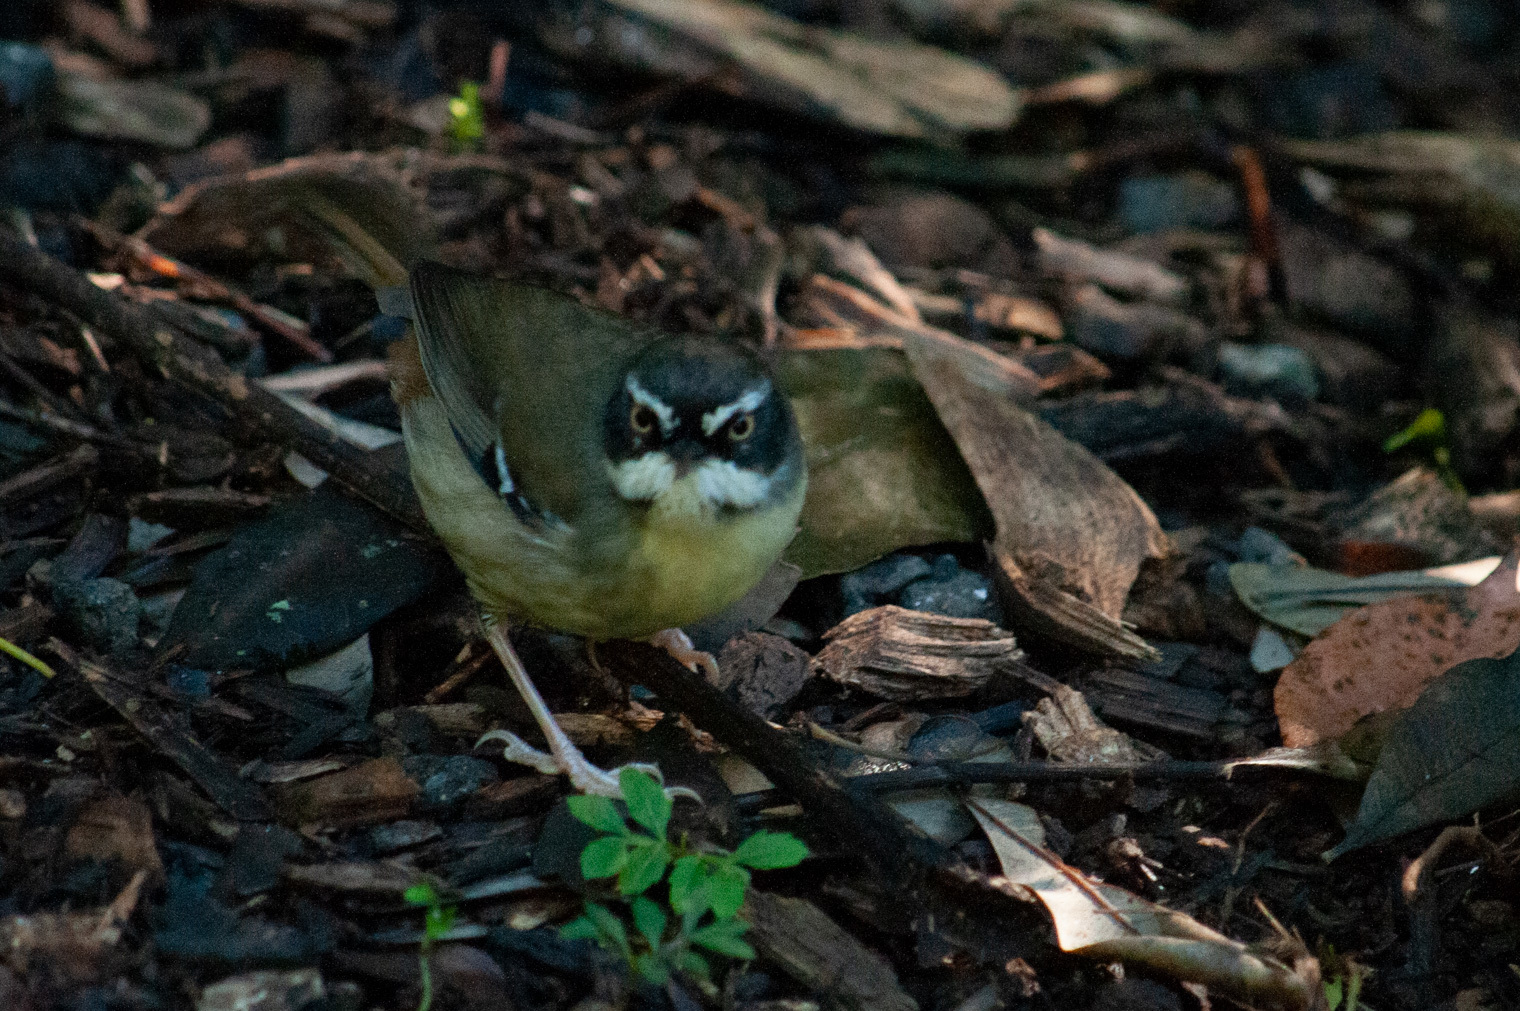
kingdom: Animalia
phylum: Chordata
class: Aves
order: Passeriformes
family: Acanthizidae
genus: Sericornis
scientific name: Sericornis frontalis
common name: White-browed scrubwren
